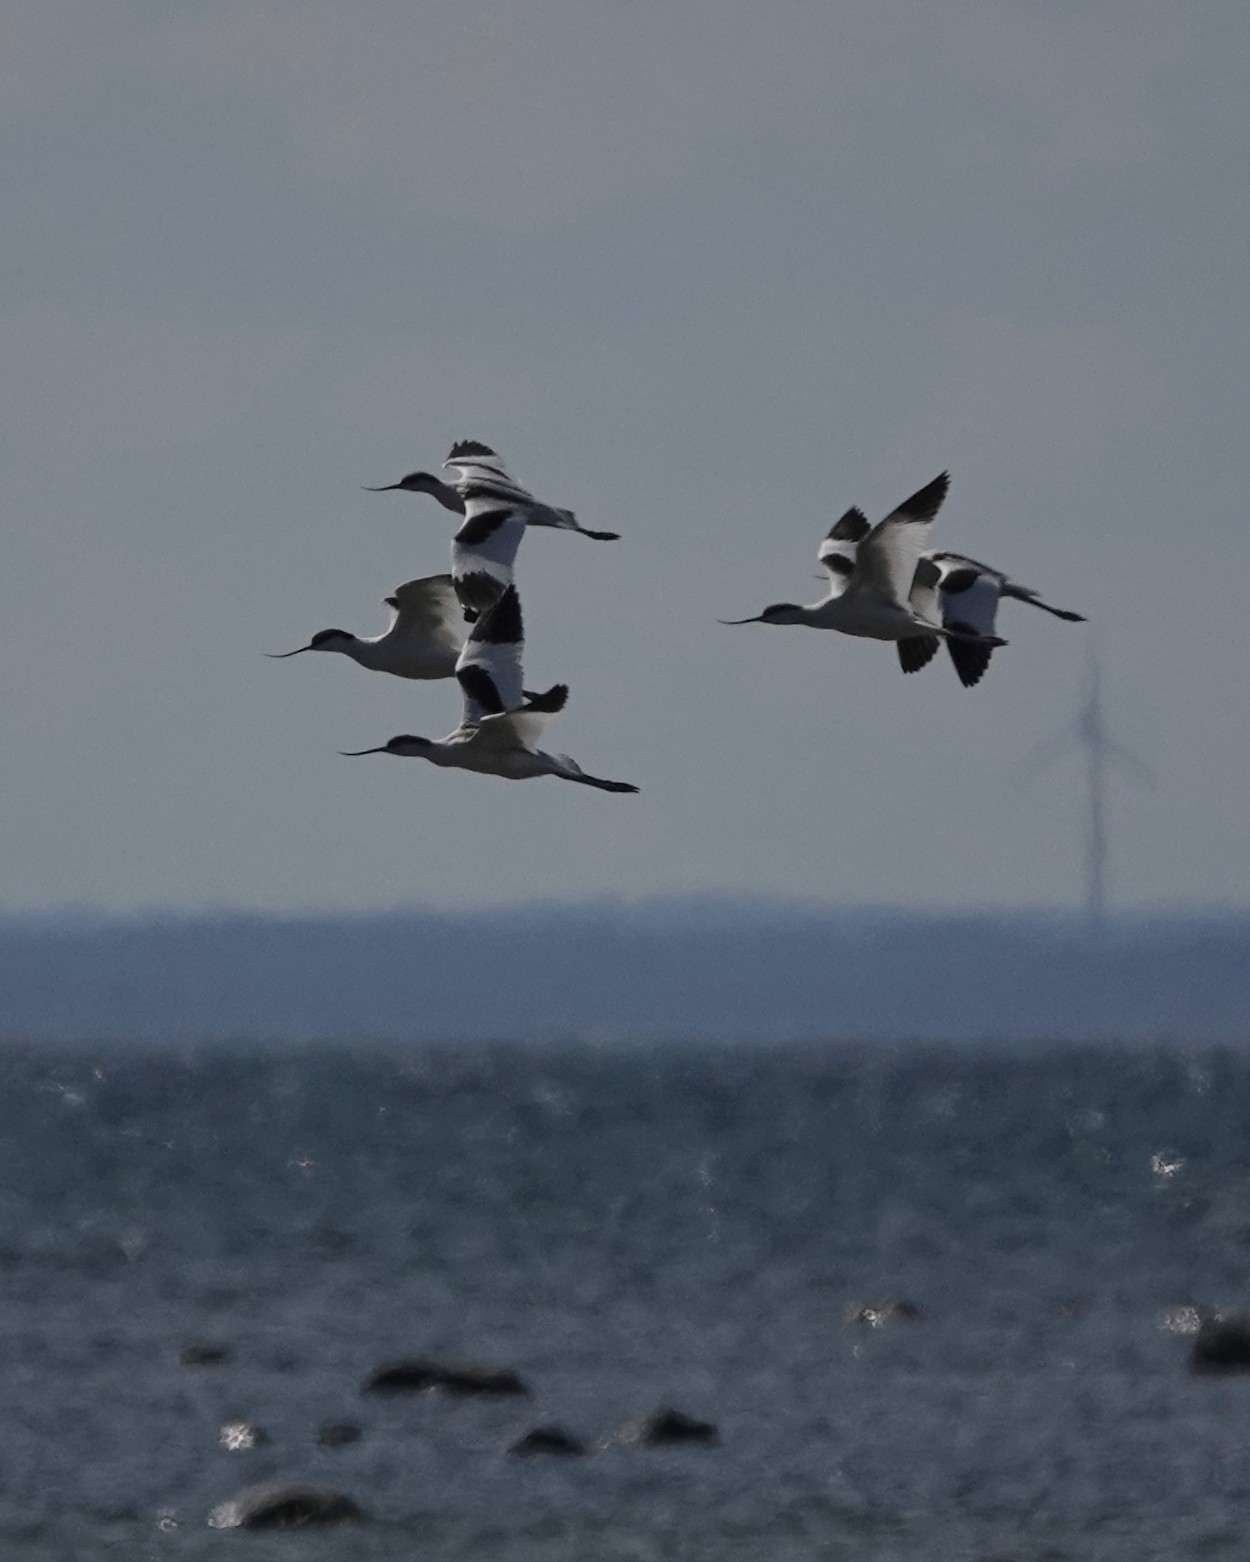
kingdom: Animalia
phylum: Chordata
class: Aves
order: Charadriiformes
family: Recurvirostridae
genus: Recurvirostra
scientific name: Recurvirostra avosetta
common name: Pied avocet
